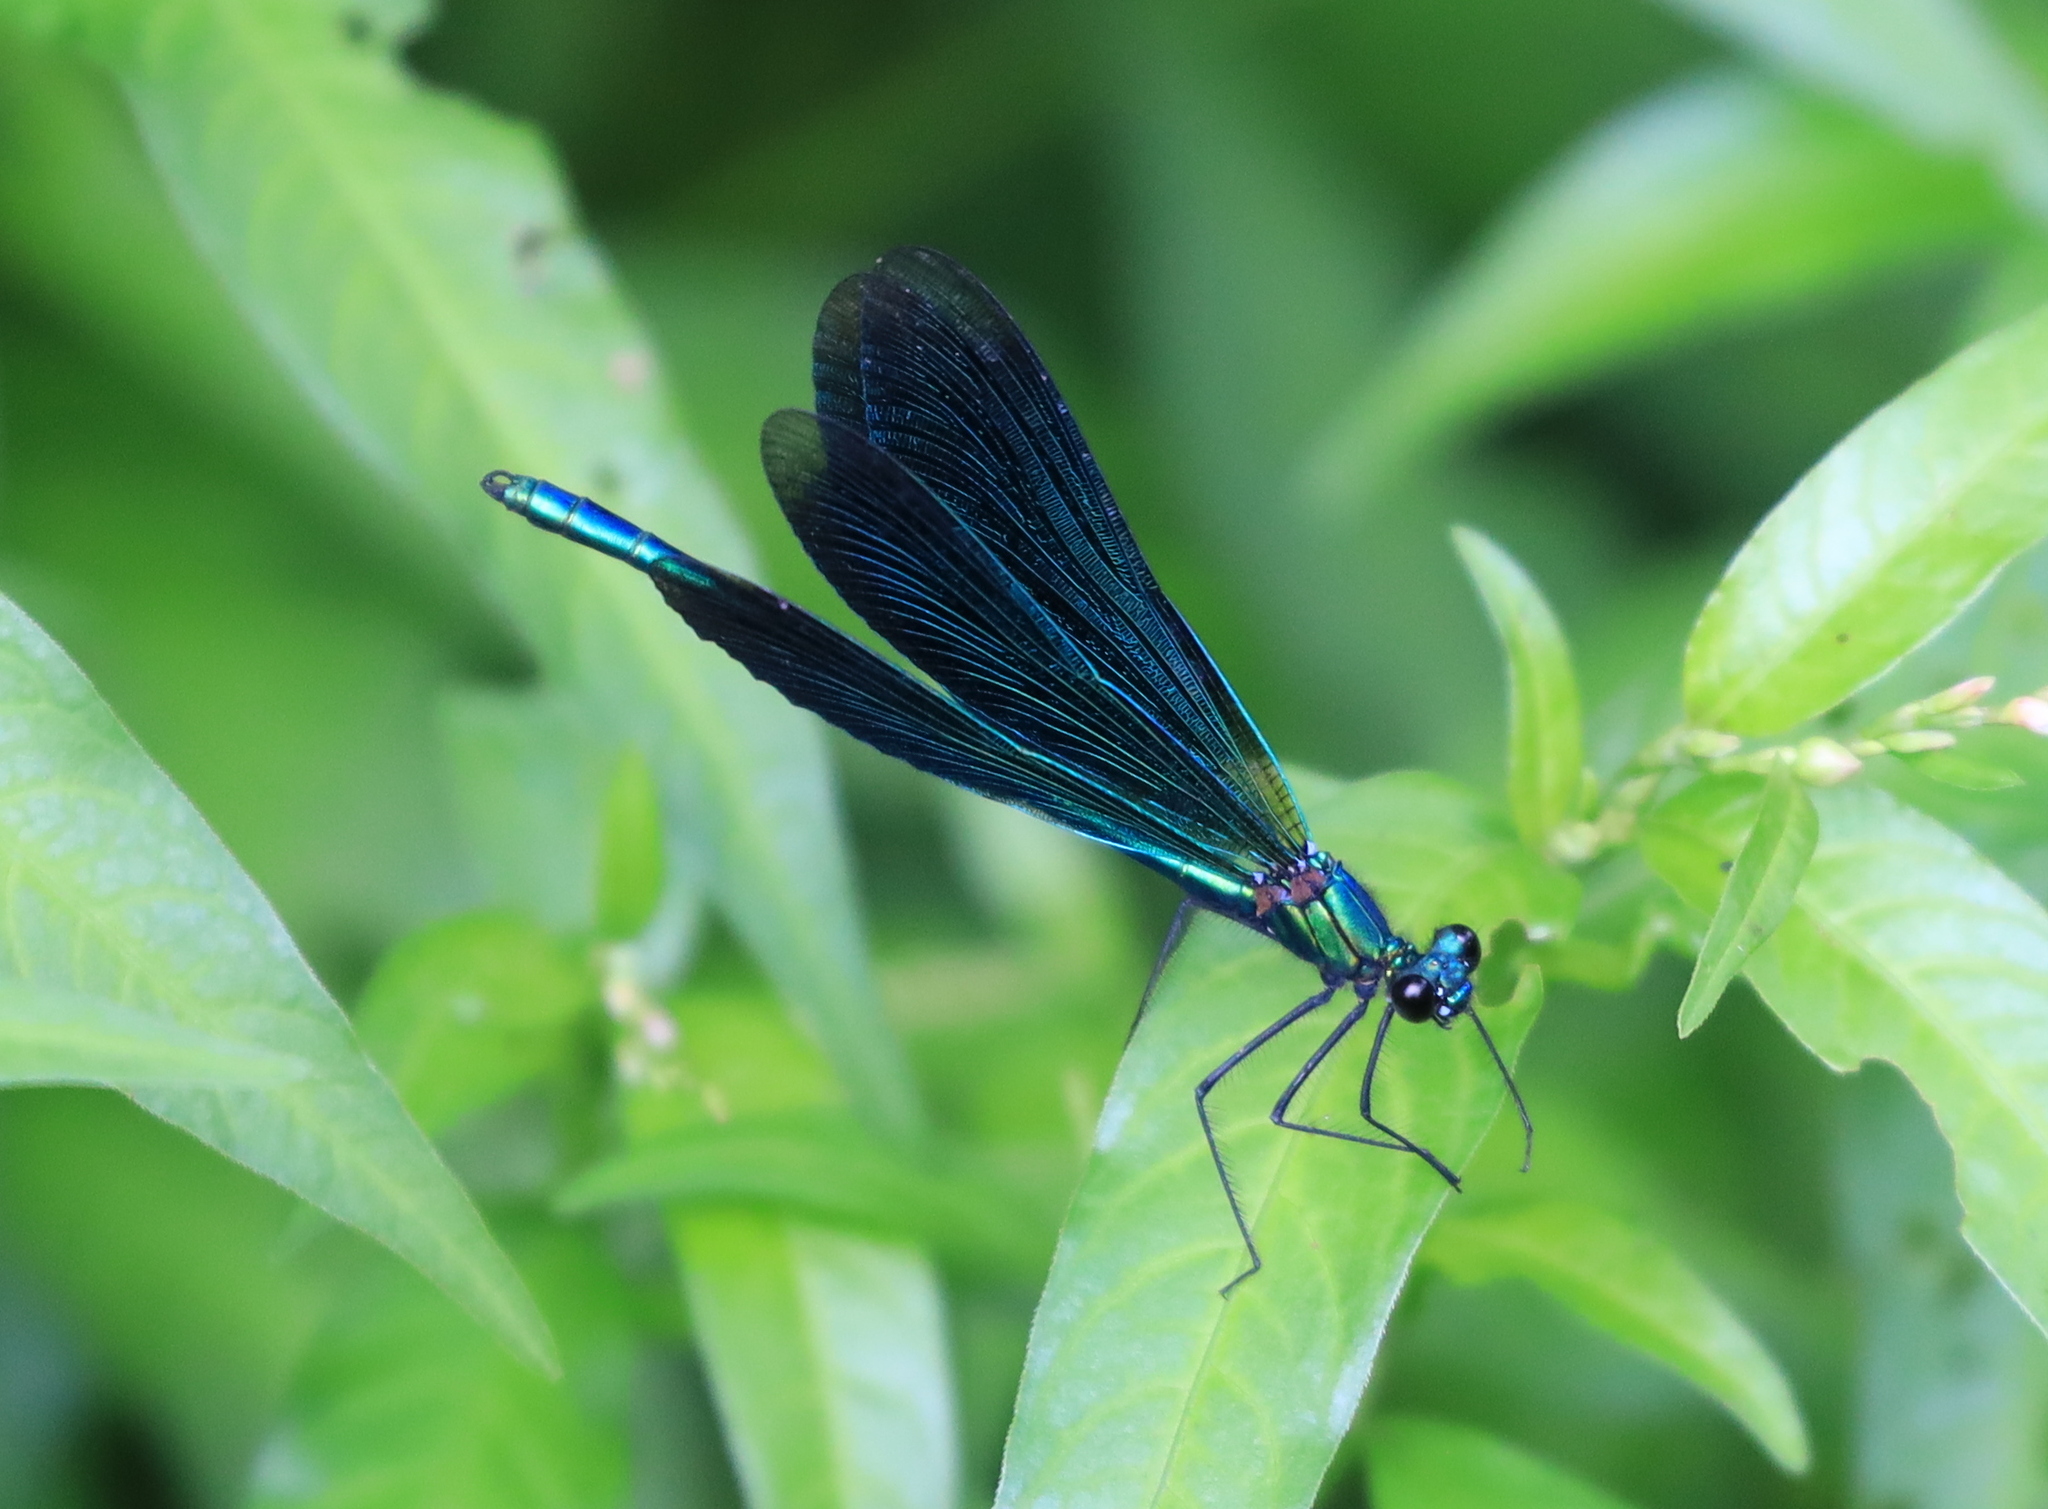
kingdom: Animalia
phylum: Arthropoda
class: Insecta
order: Odonata
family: Calopterygidae
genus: Calopteryx
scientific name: Calopteryx virgo
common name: Beautiful demoiselle
